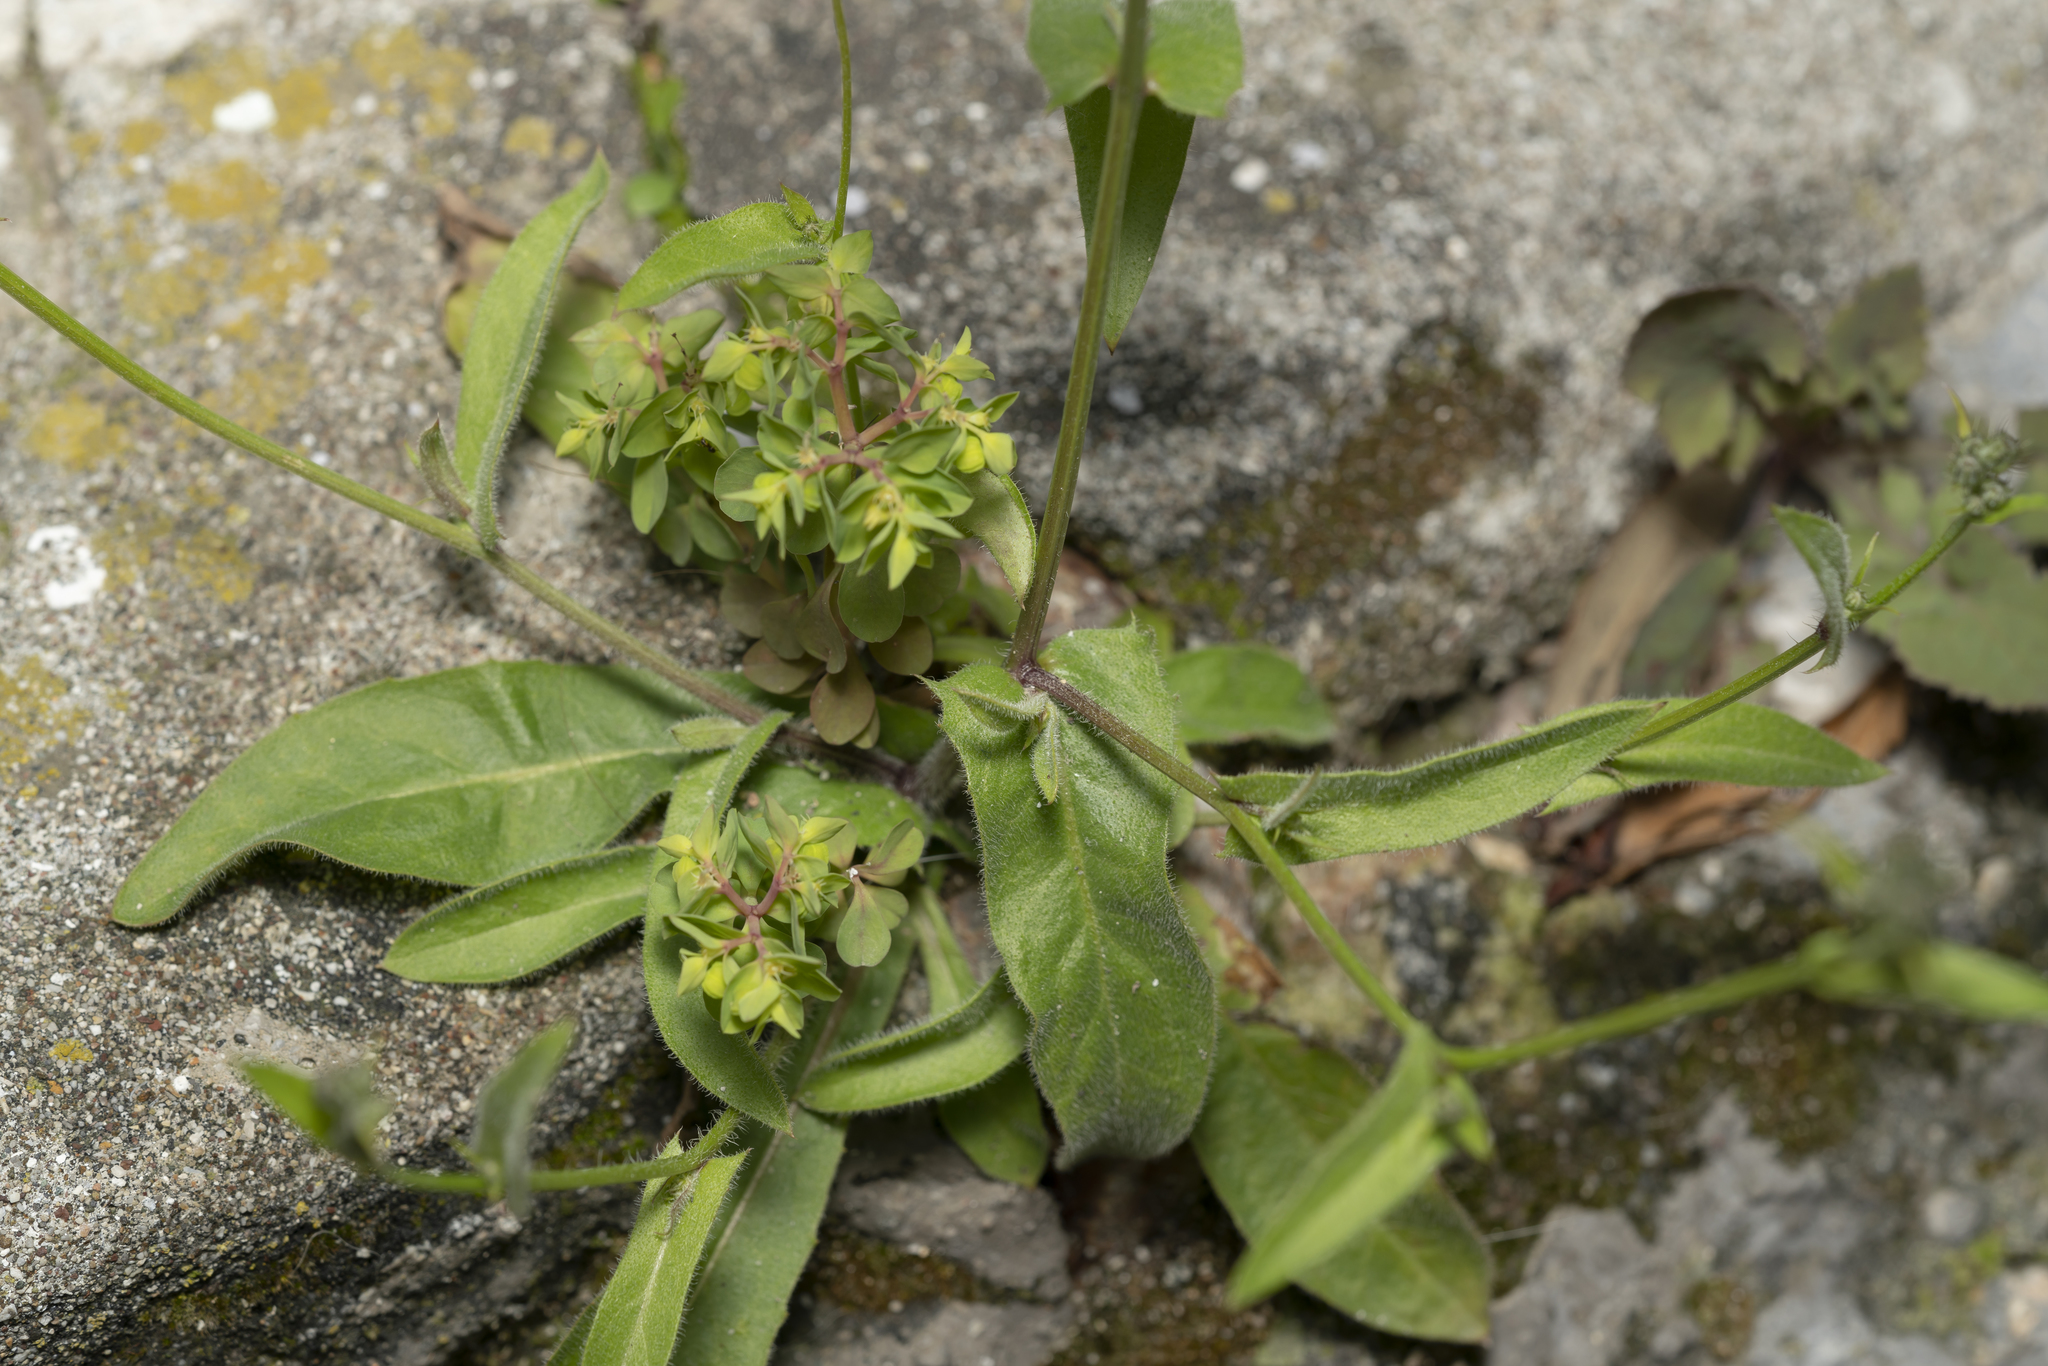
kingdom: Plantae
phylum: Tracheophyta
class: Magnoliopsida
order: Asterales
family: Asteraceae
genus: Crepis
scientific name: Crepis micrantha
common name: Hawk's-beard
